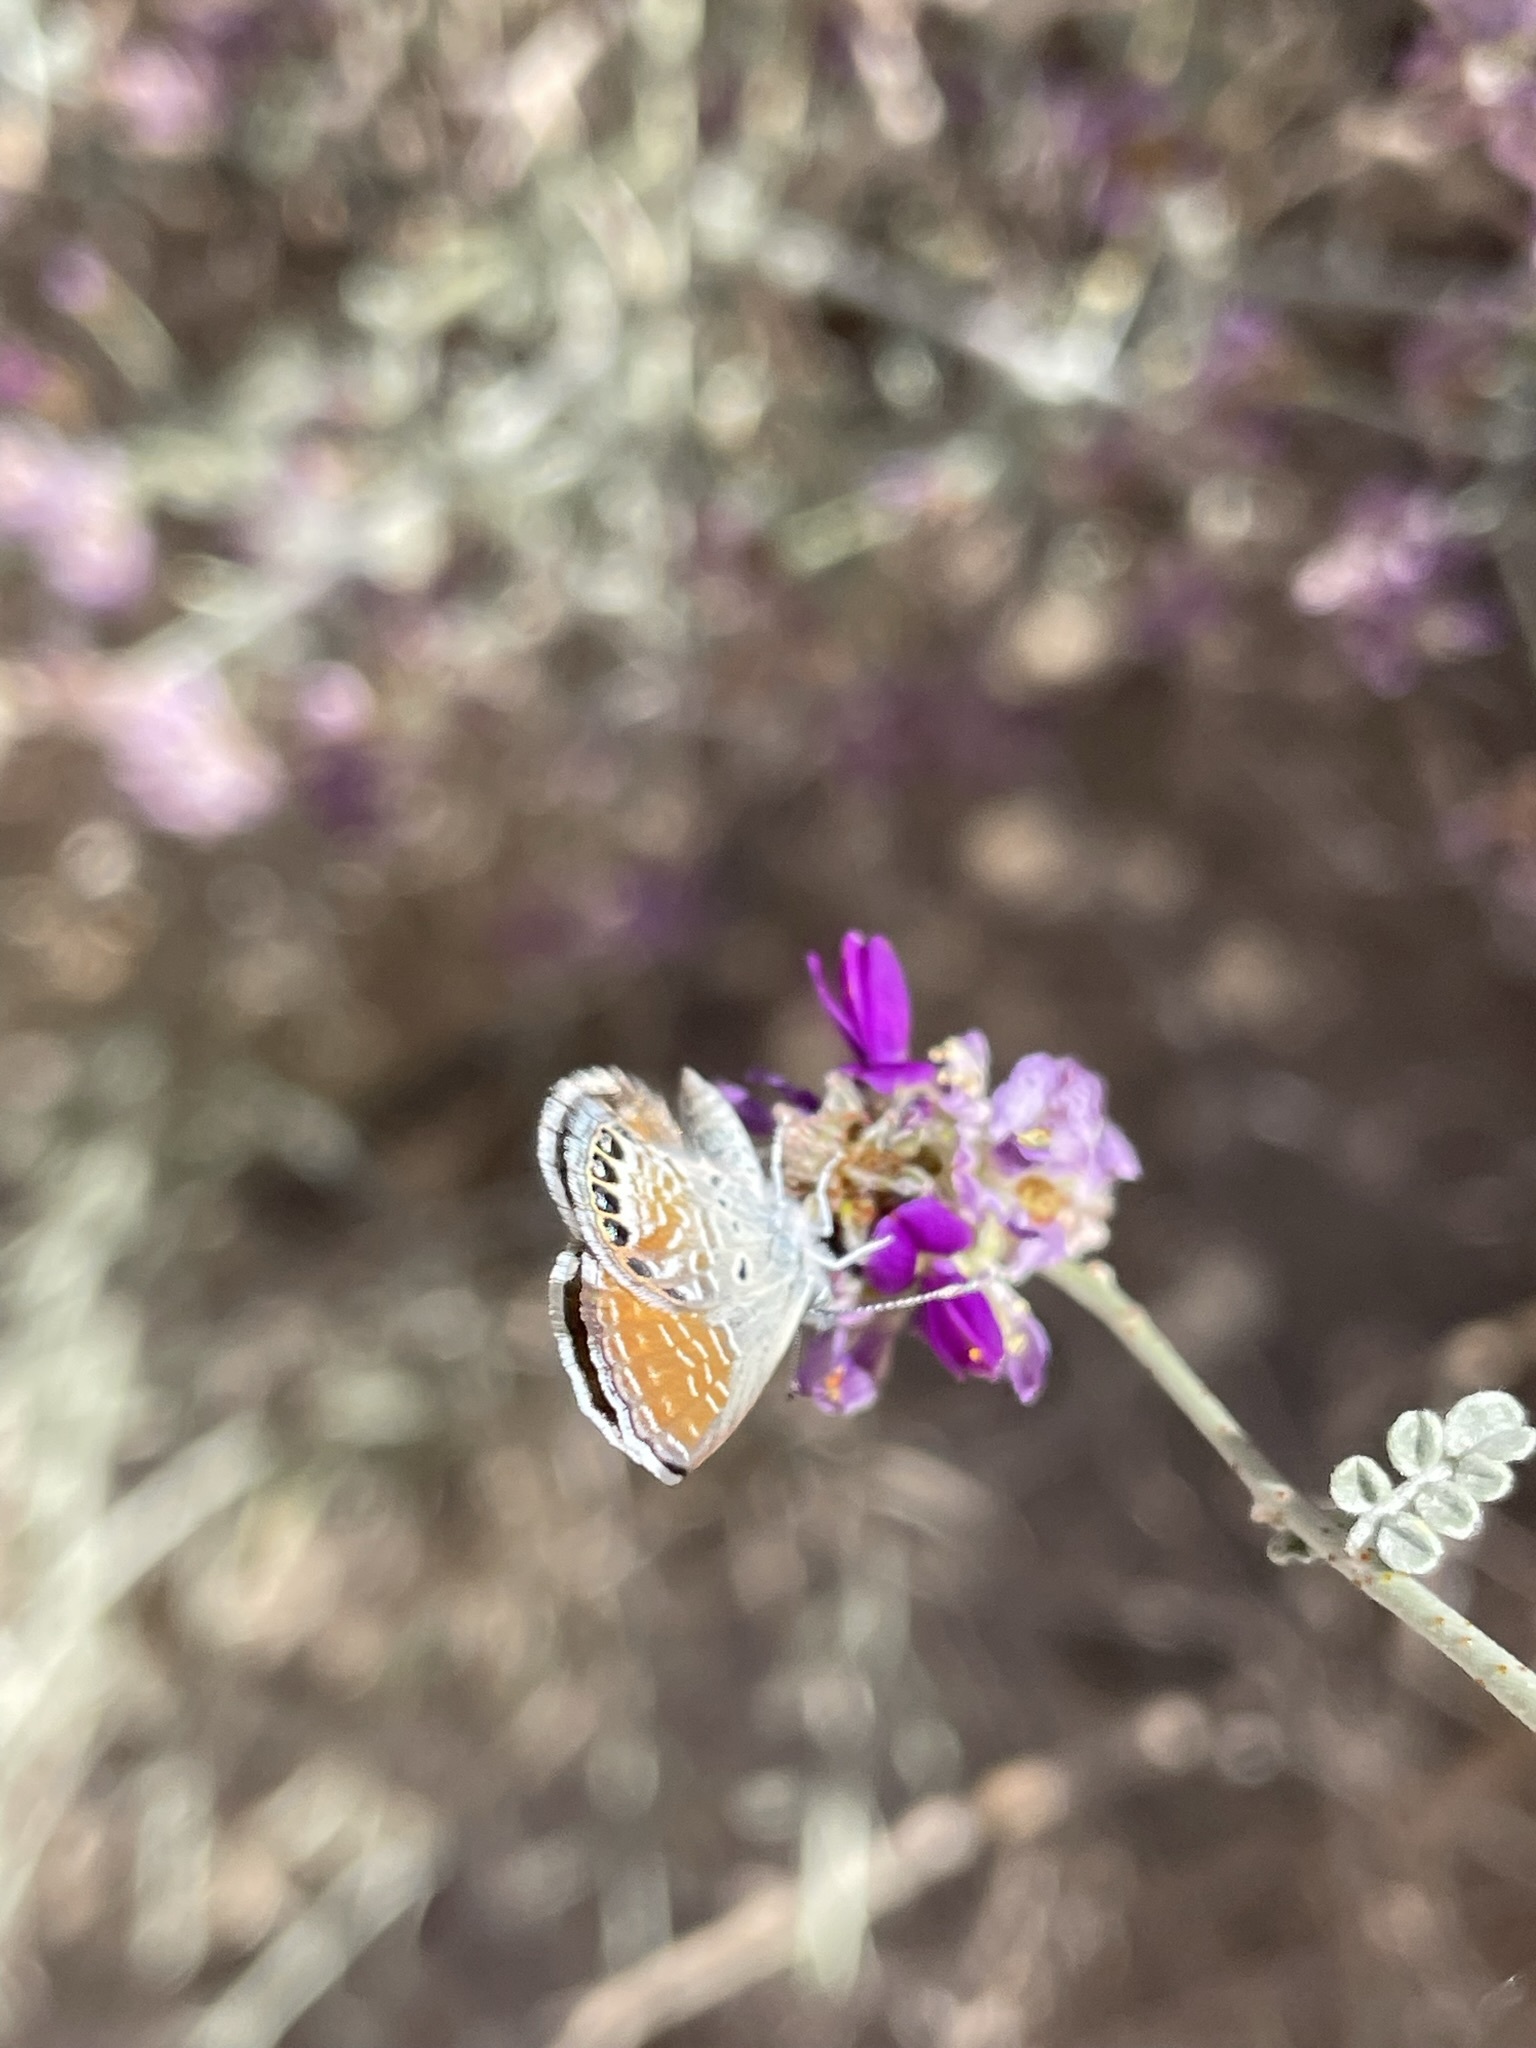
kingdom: Animalia
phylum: Arthropoda
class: Insecta
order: Lepidoptera
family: Lycaenidae
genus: Brephidium
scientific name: Brephidium exilis
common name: Pygmy blue
